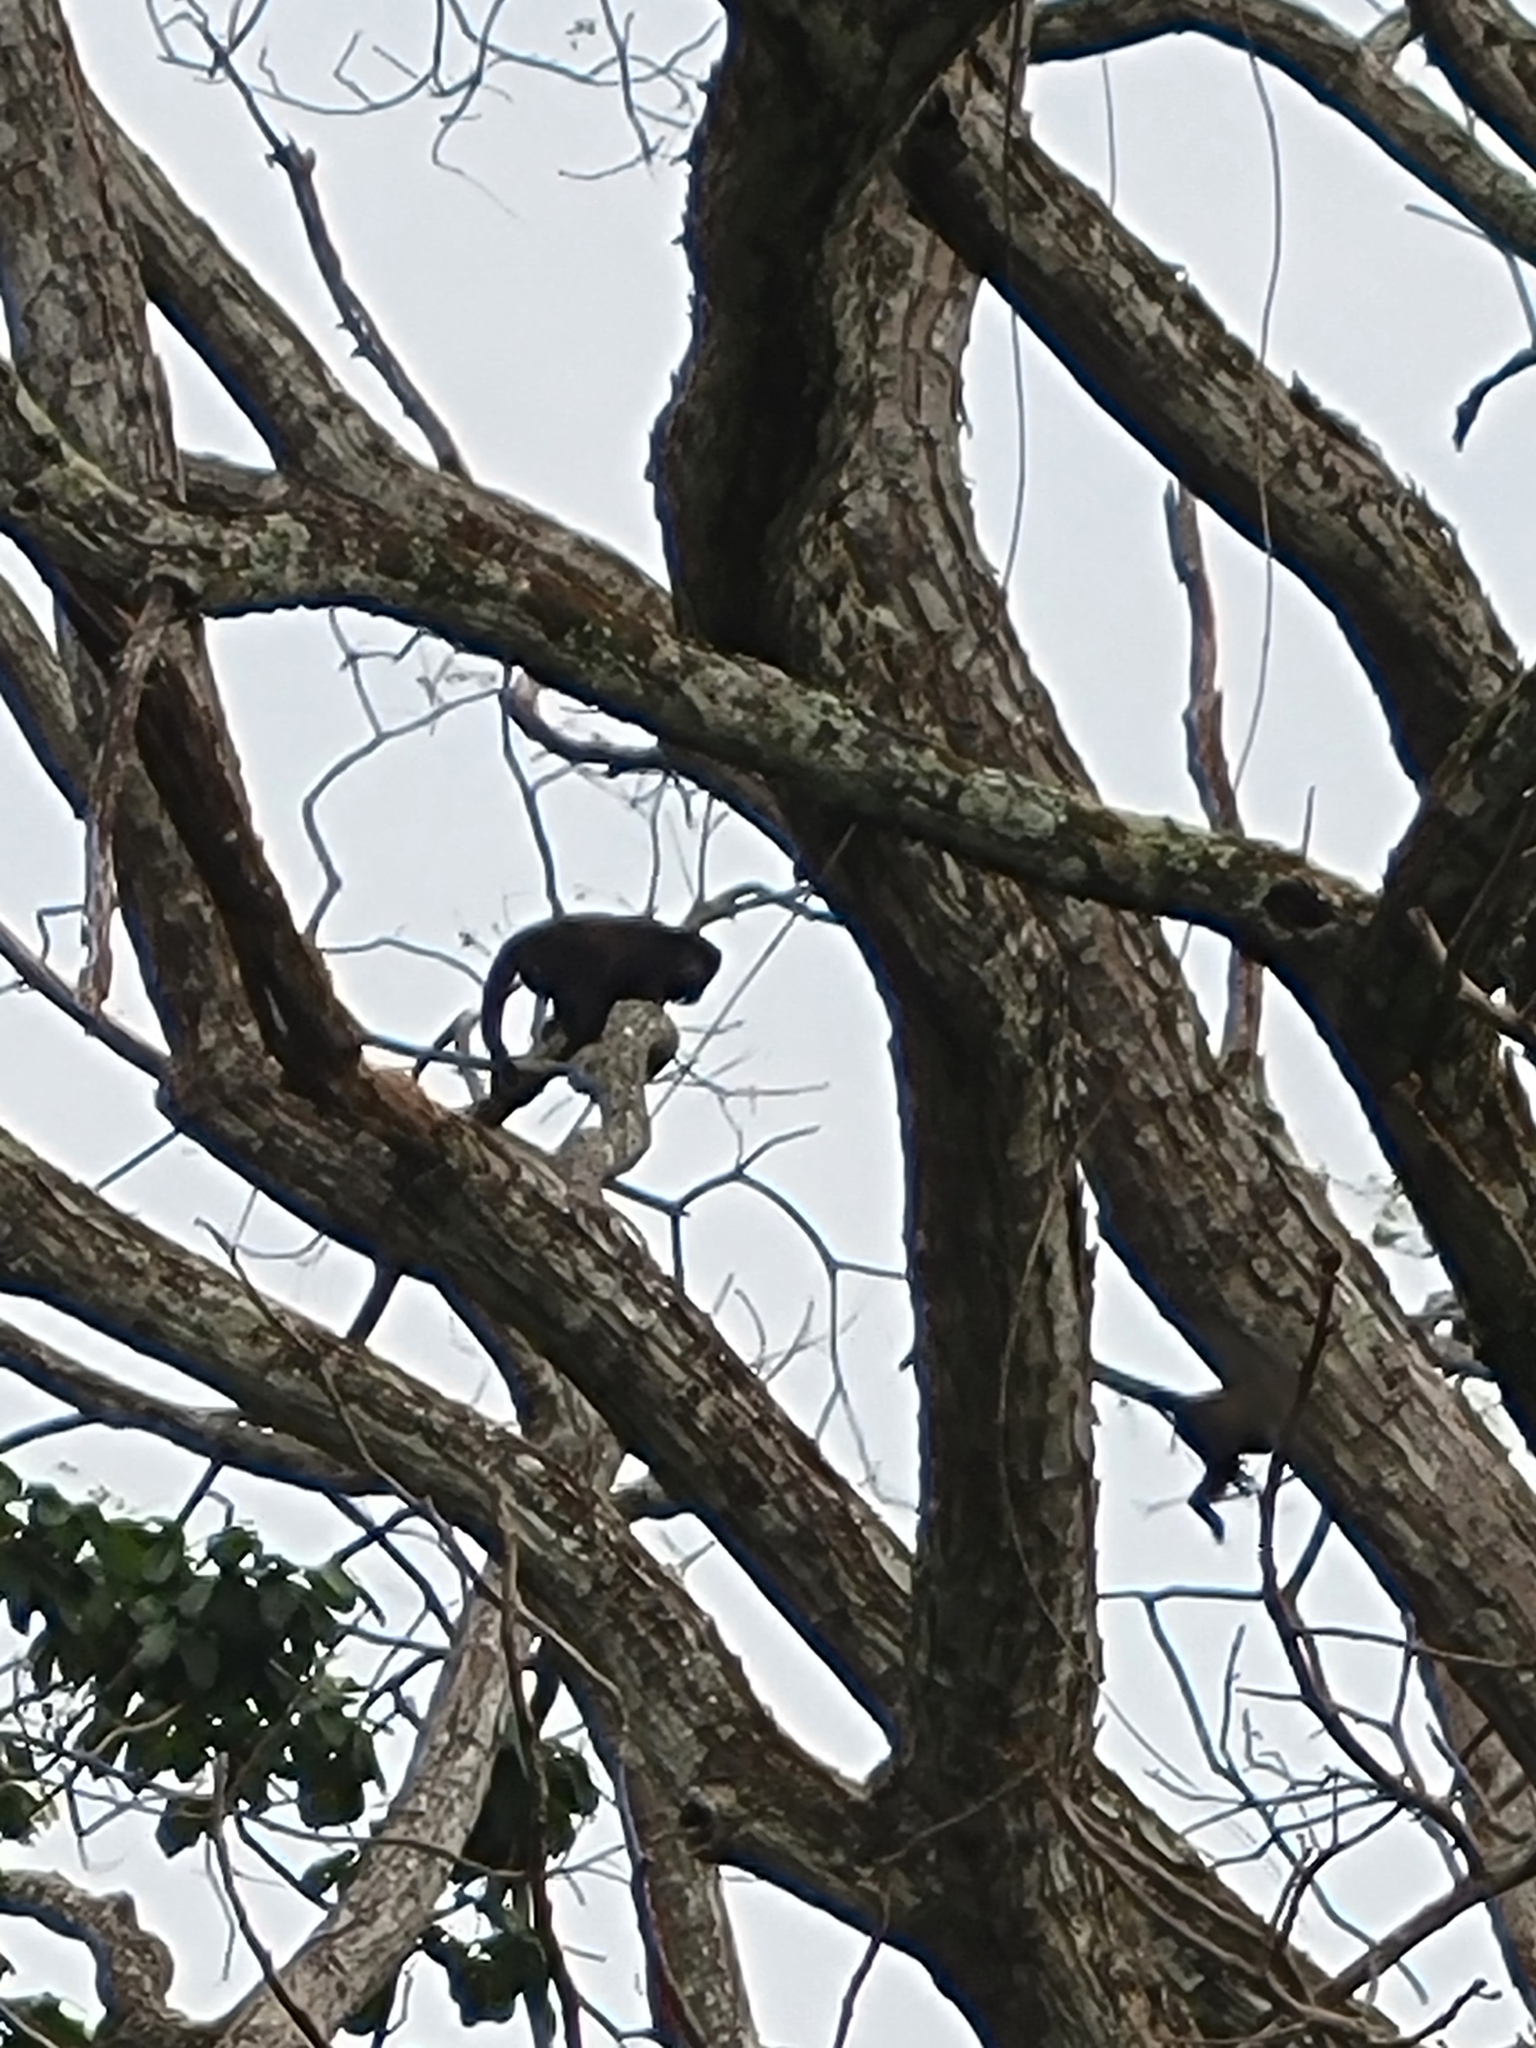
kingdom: Animalia
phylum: Chordata
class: Mammalia
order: Primates
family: Atelidae
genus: Alouatta
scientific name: Alouatta palliata
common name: Mantled howler
